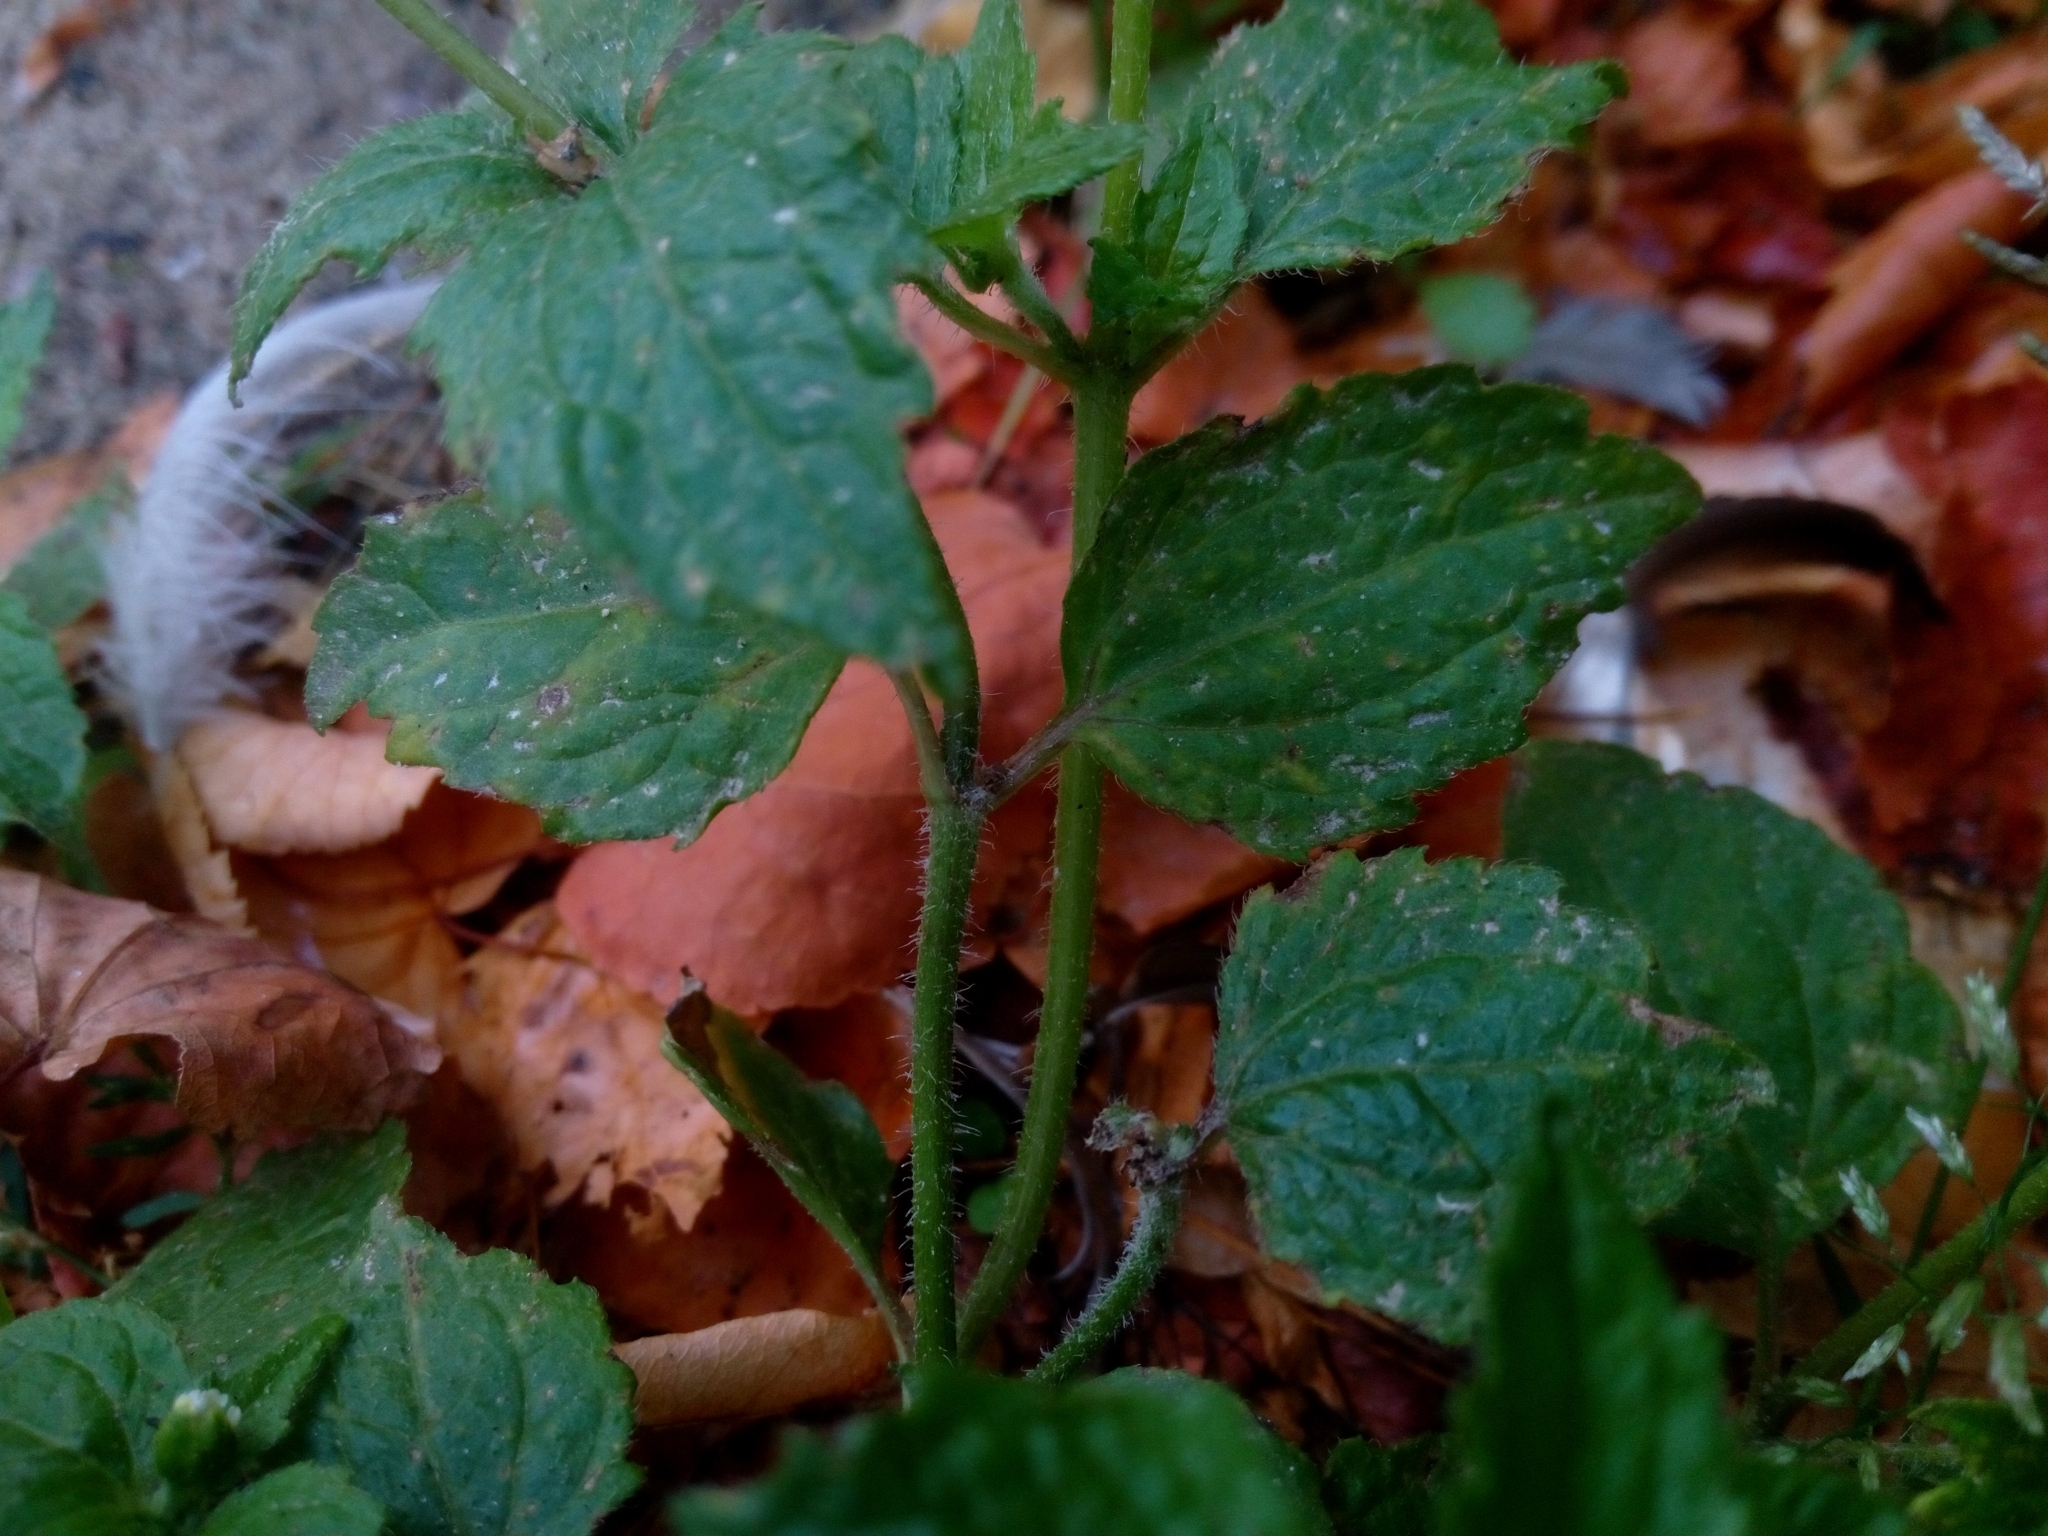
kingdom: Plantae
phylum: Tracheophyta
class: Magnoliopsida
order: Asterales
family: Asteraceae
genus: Galinsoga
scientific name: Galinsoga quadriradiata
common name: Shaggy soldier
